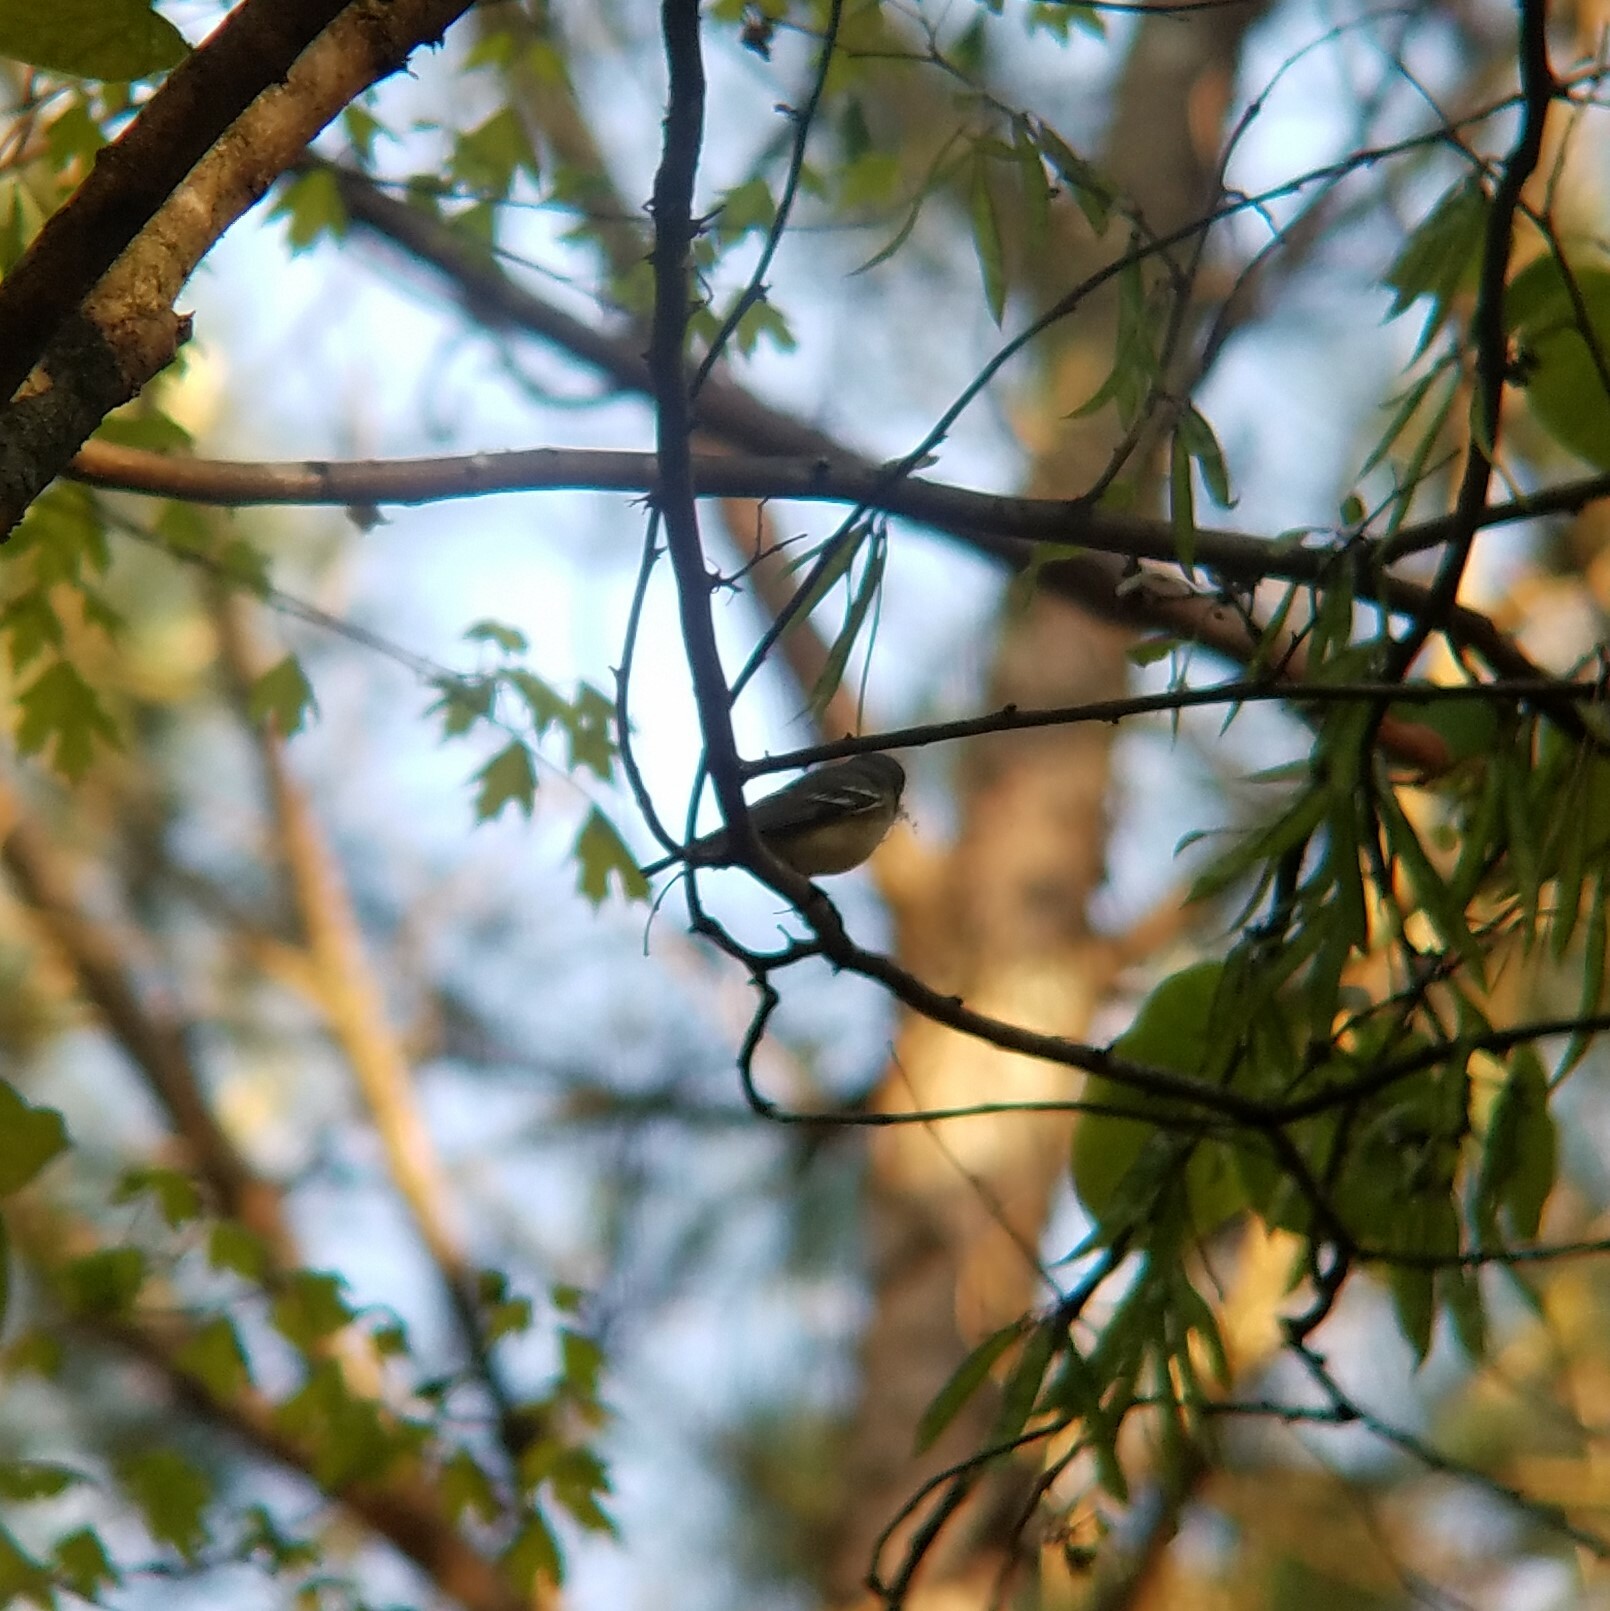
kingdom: Animalia
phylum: Chordata
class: Aves
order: Passeriformes
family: Vireonidae
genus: Vireo
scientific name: Vireo solitarius
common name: Blue-headed vireo
